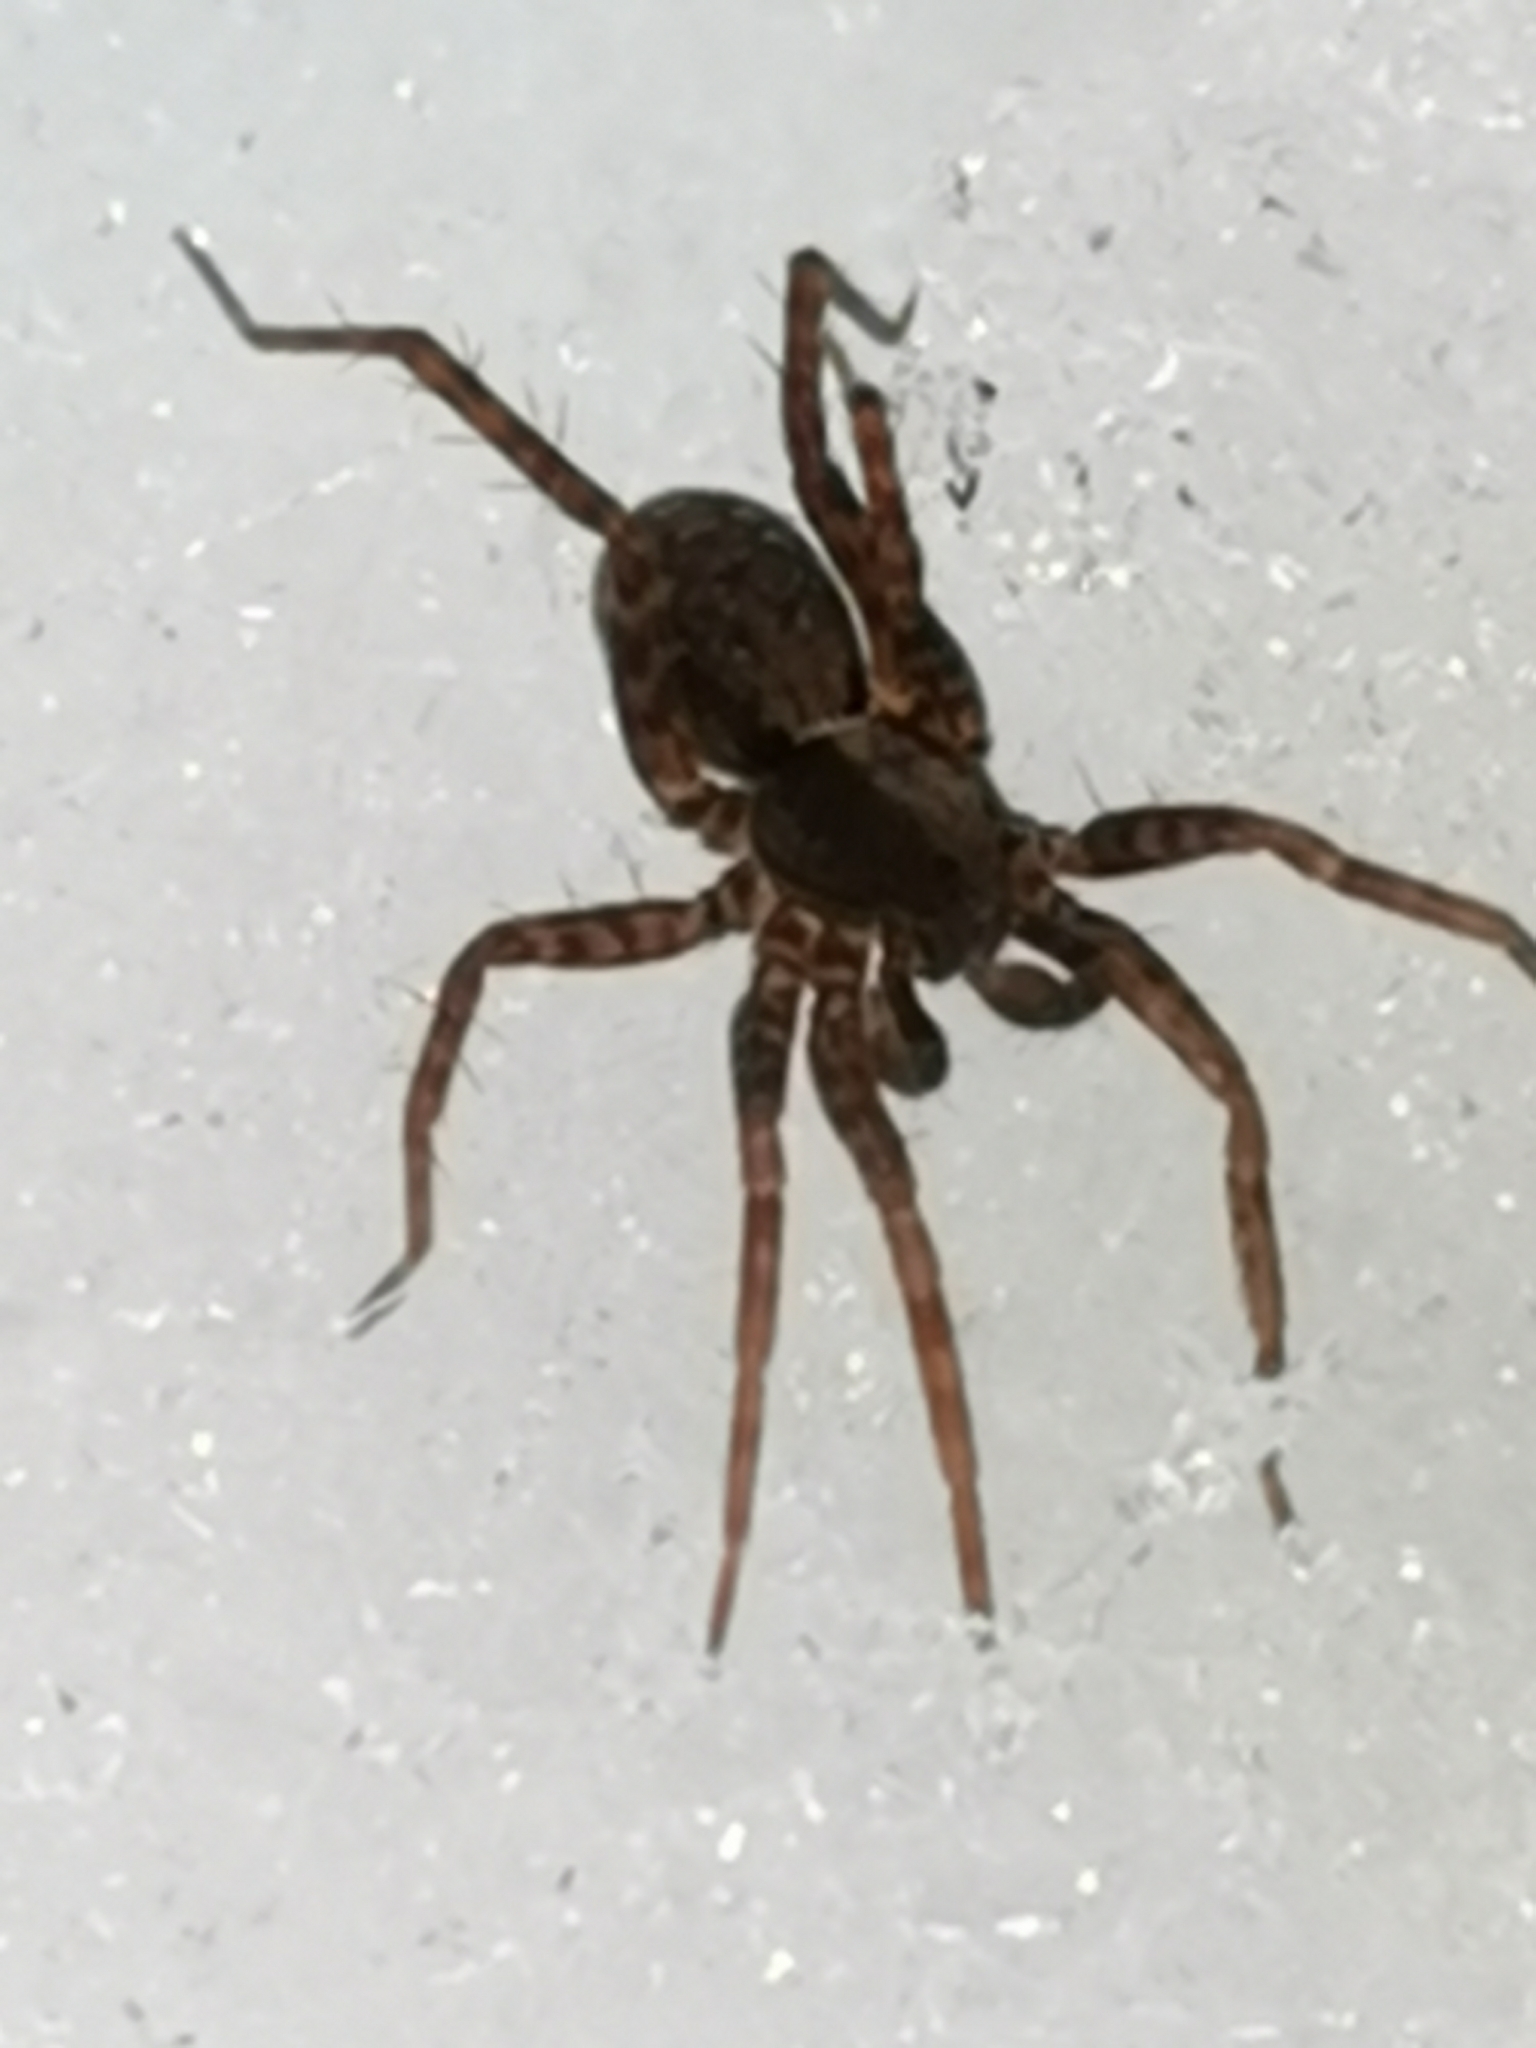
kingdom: Animalia
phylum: Arthropoda
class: Arachnida
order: Araneae
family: Lycosidae
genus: Pardosa
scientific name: Pardosa lugubris
